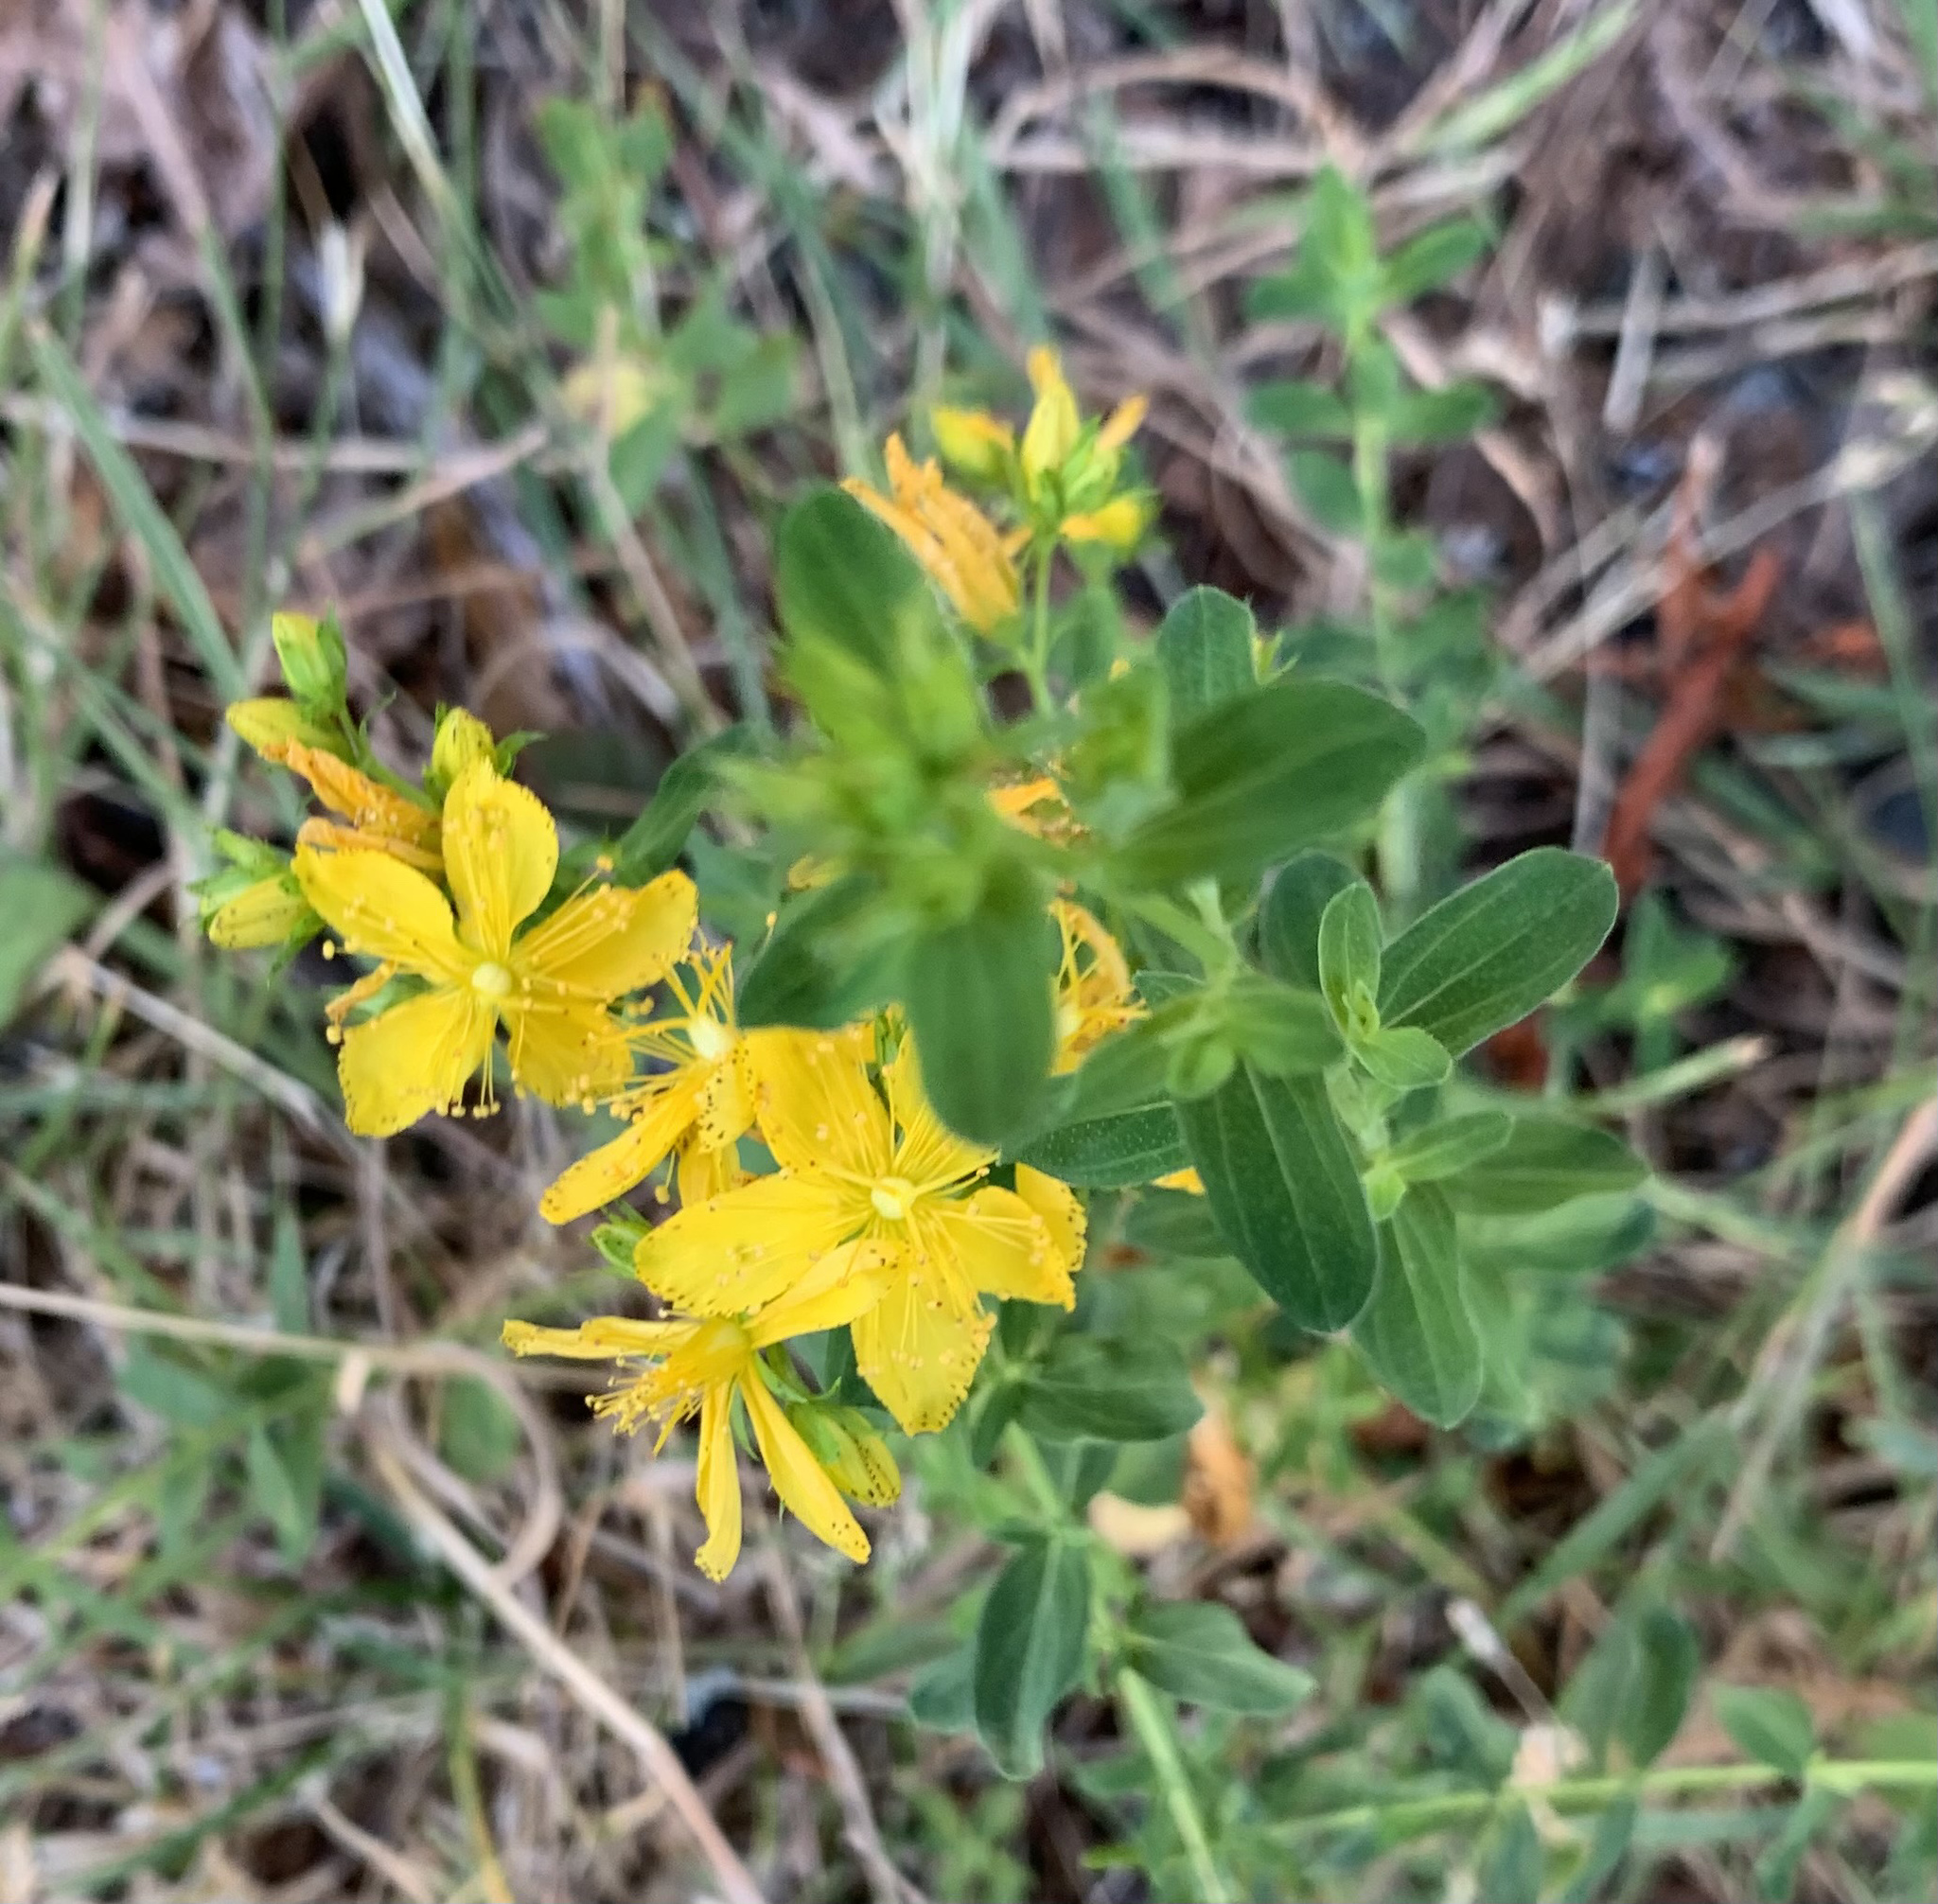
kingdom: Plantae
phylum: Tracheophyta
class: Magnoliopsida
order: Malpighiales
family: Hypericaceae
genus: Hypericum
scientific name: Hypericum perforatum
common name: Common st. johnswort
